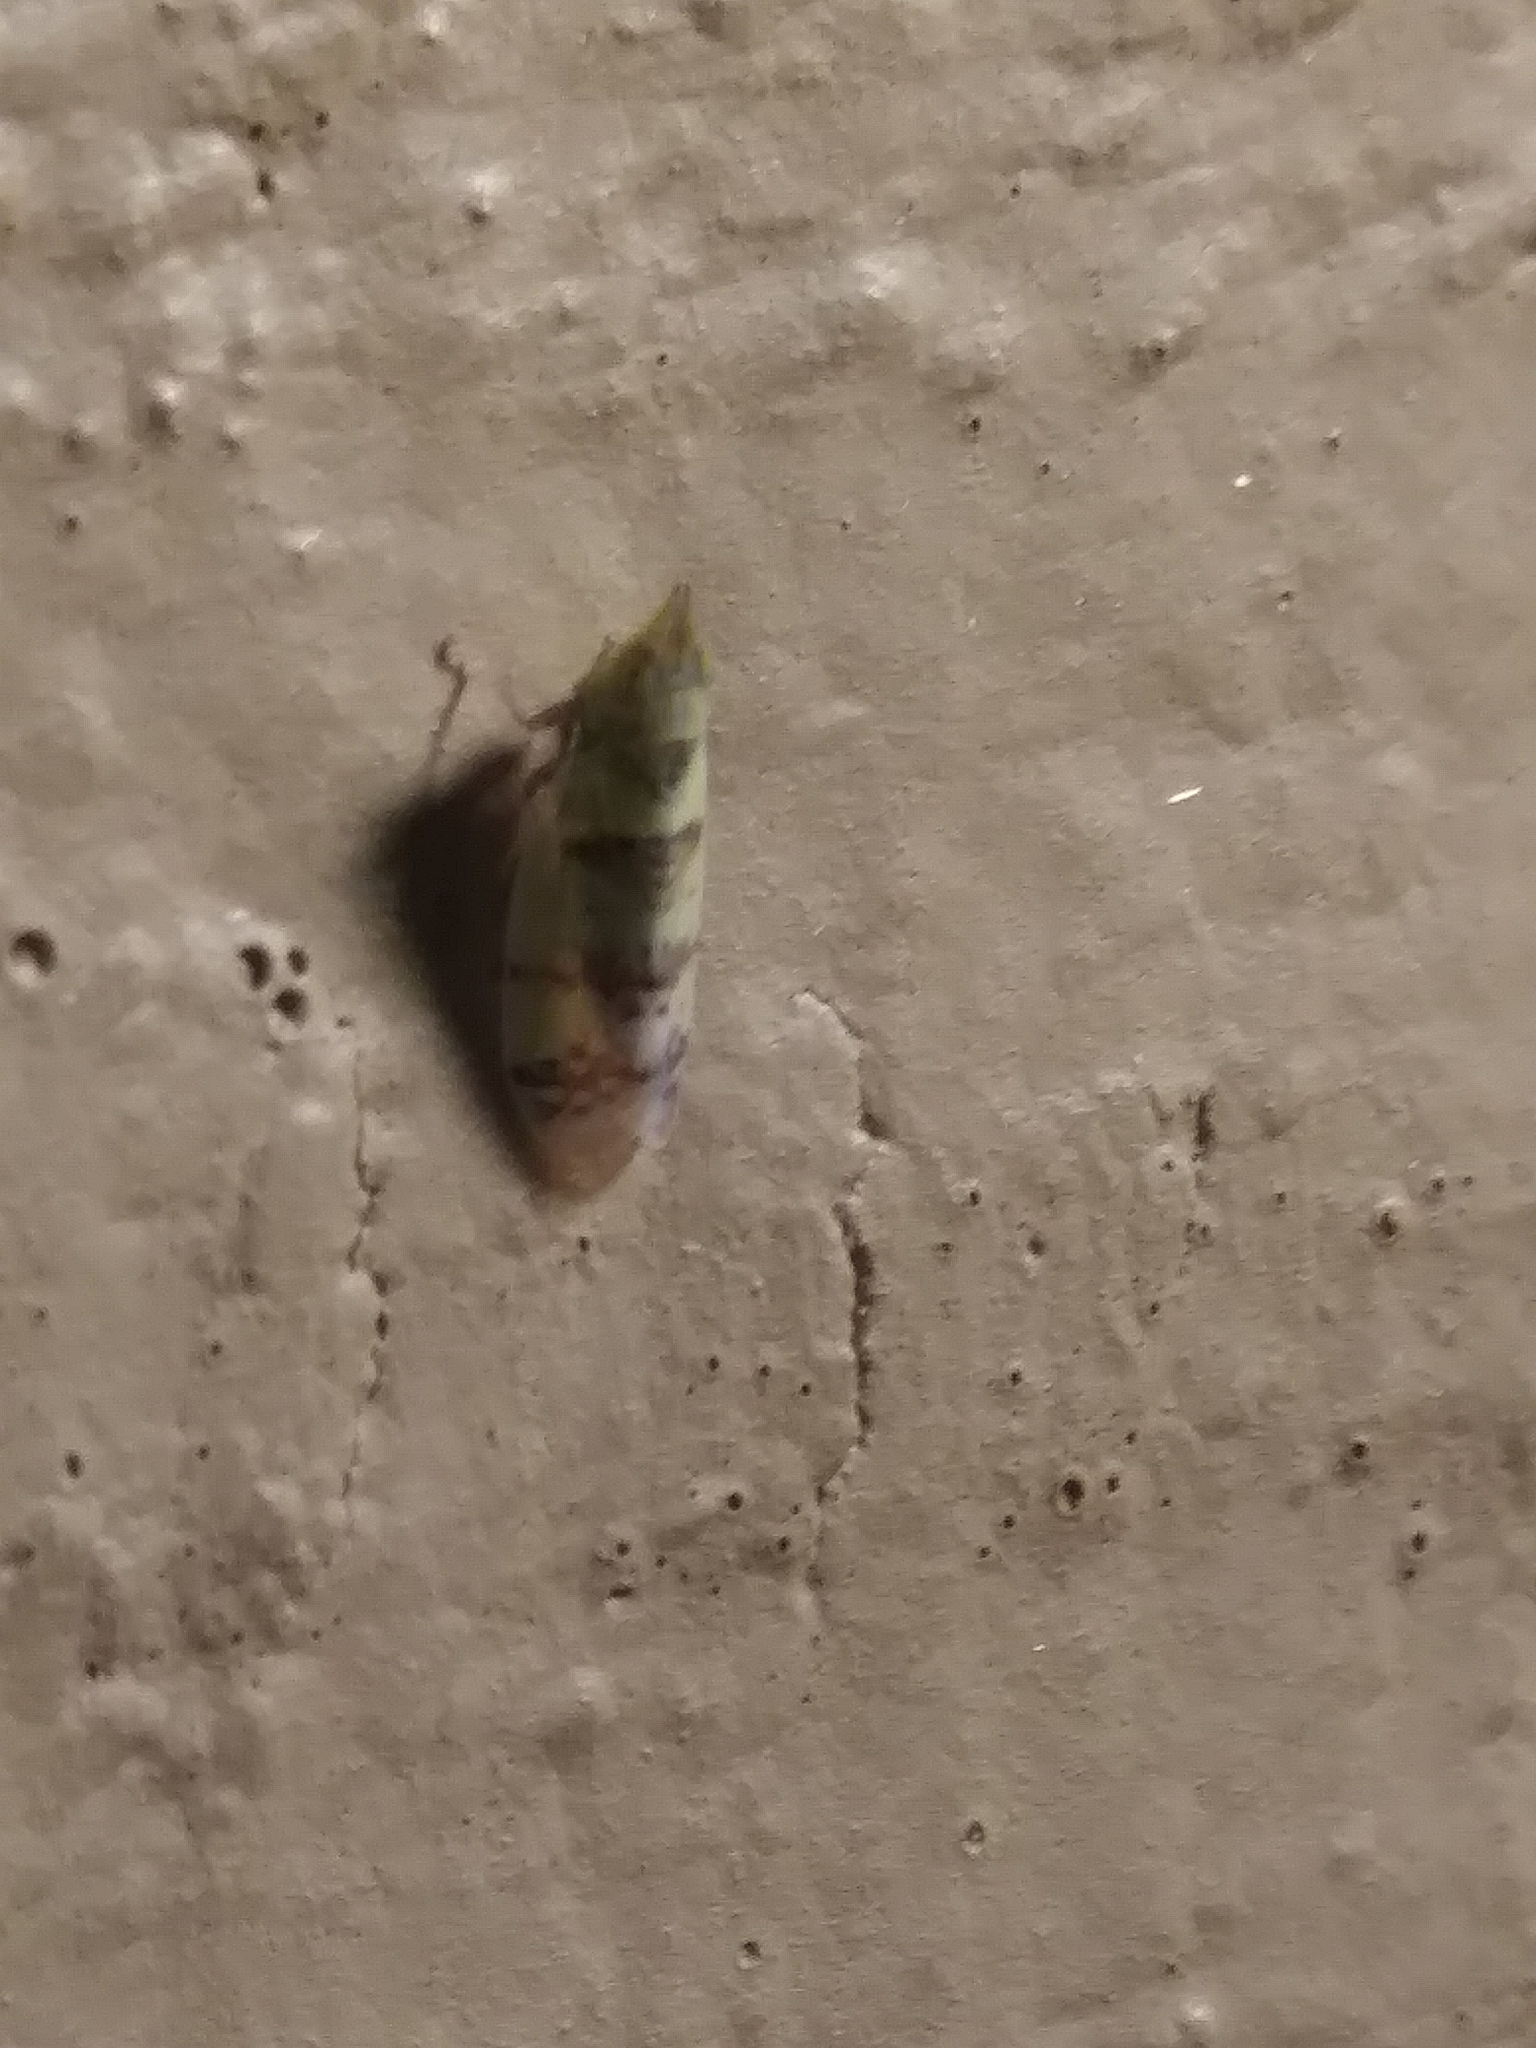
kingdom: Animalia
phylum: Arthropoda
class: Insecta
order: Hemiptera
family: Cicadellidae
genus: Japananus
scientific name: Japananus hyalinus
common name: The japanese maple leafhopper
